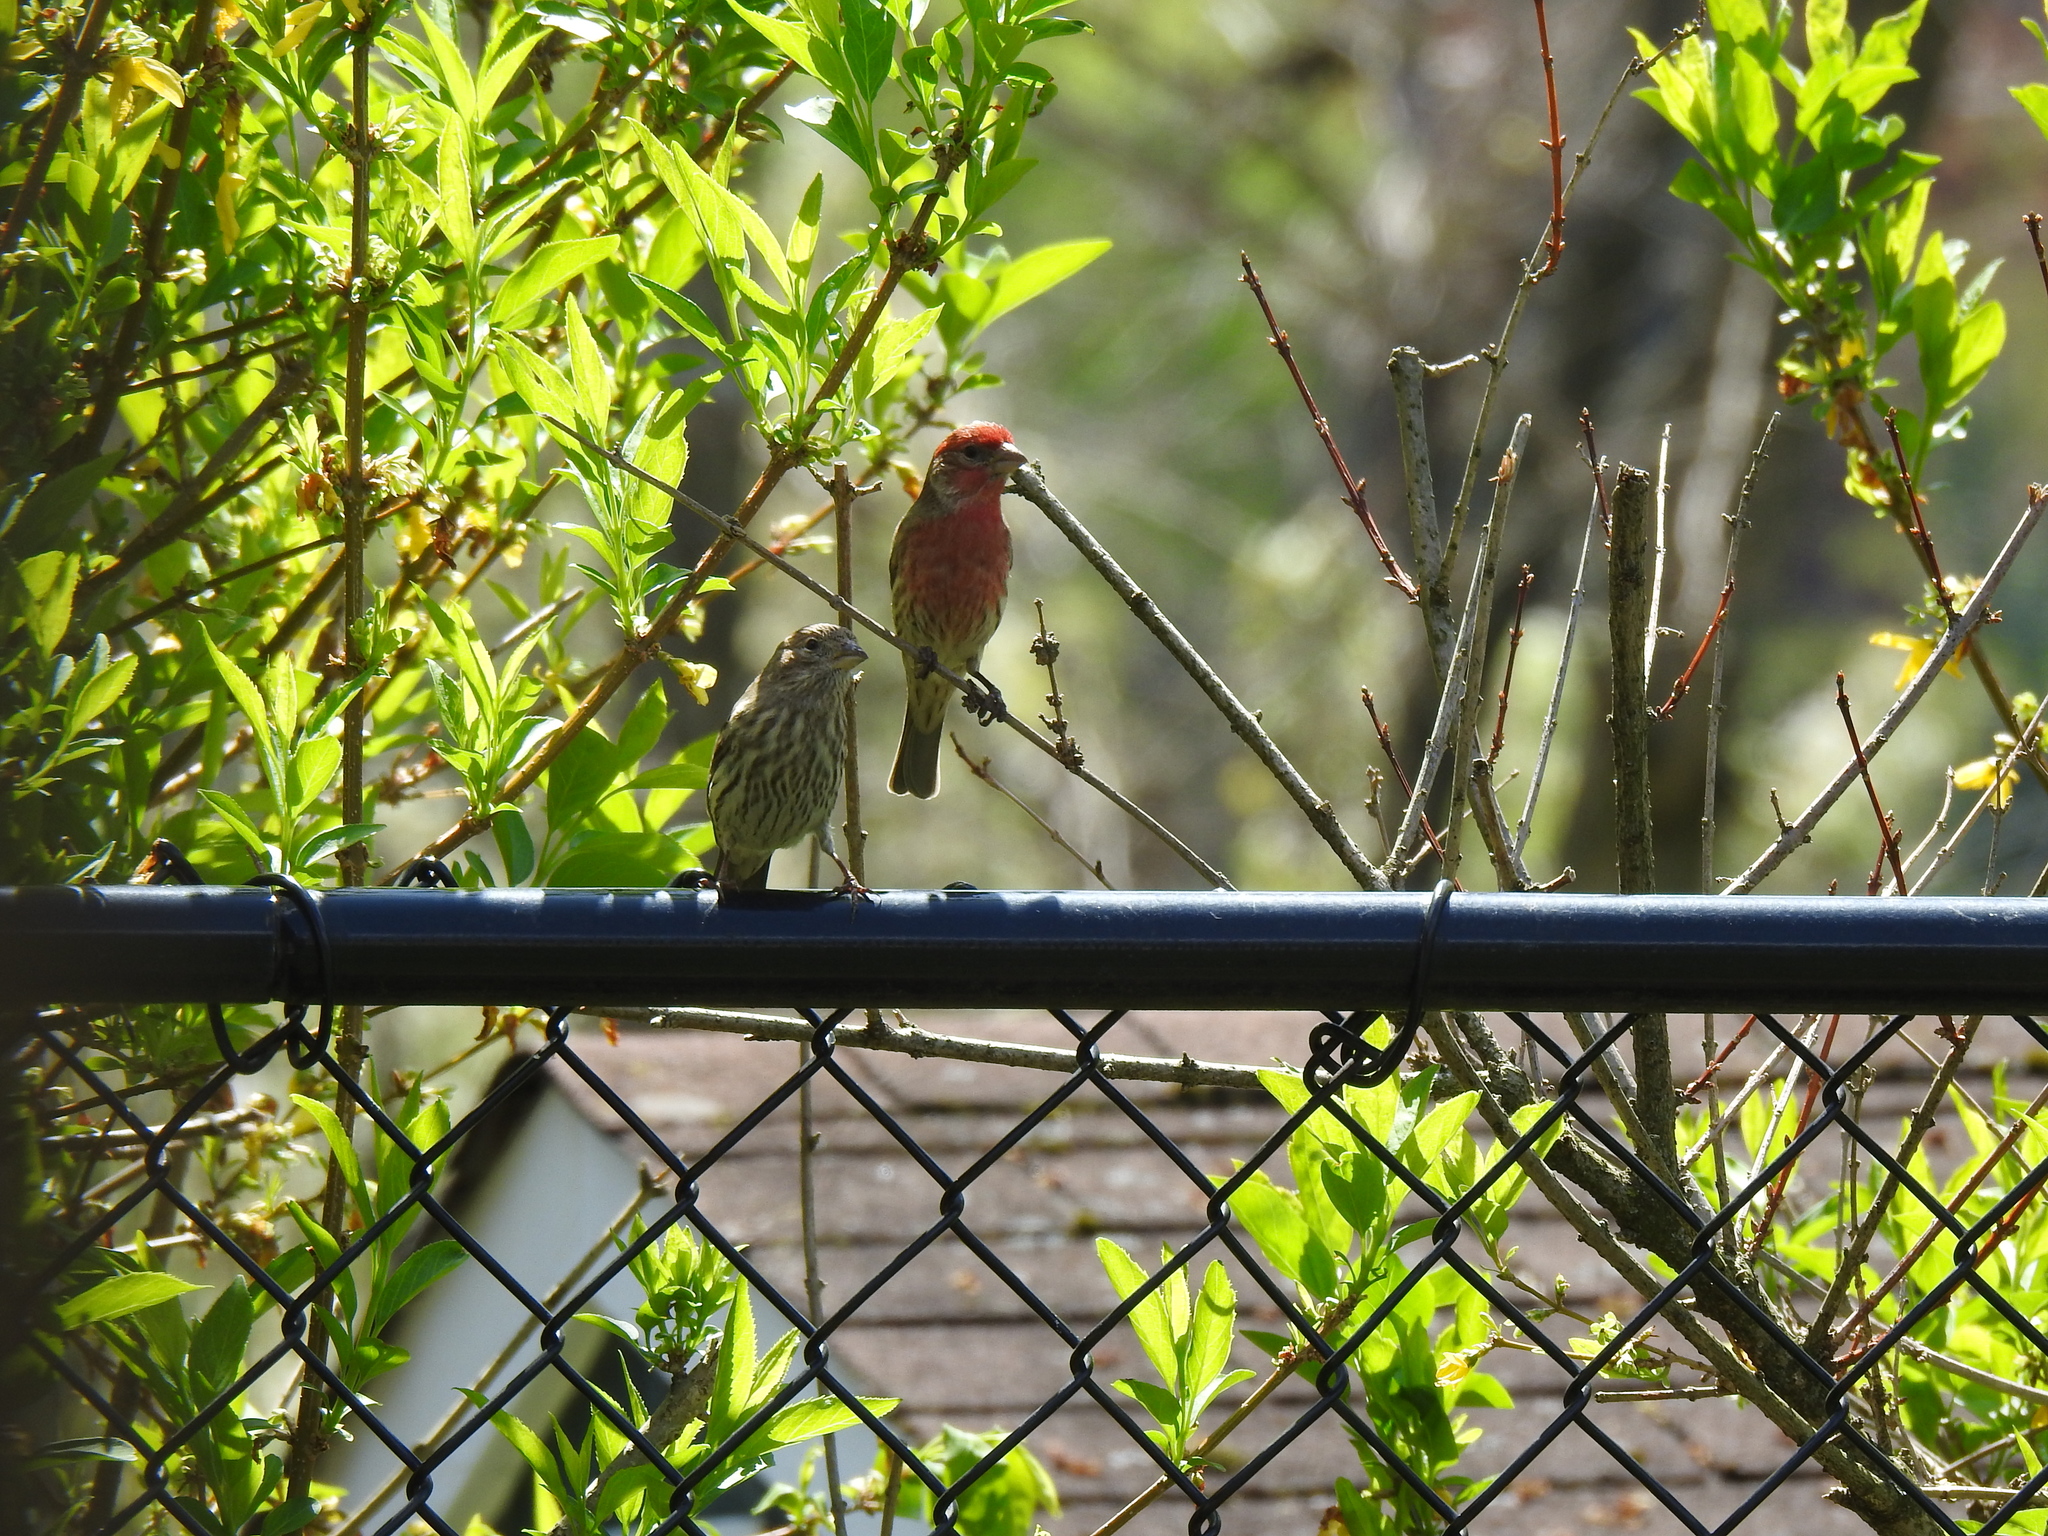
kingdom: Animalia
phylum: Chordata
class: Aves
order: Passeriformes
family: Fringillidae
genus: Haemorhous
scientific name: Haemorhous mexicanus
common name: House finch
